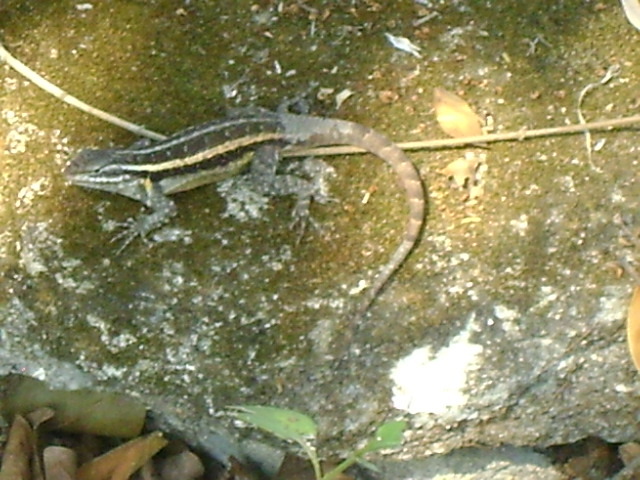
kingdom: Animalia
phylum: Chordata
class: Squamata
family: Phrynosomatidae
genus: Sceloporus
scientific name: Sceloporus variabilis
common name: Rosebelly lizard
